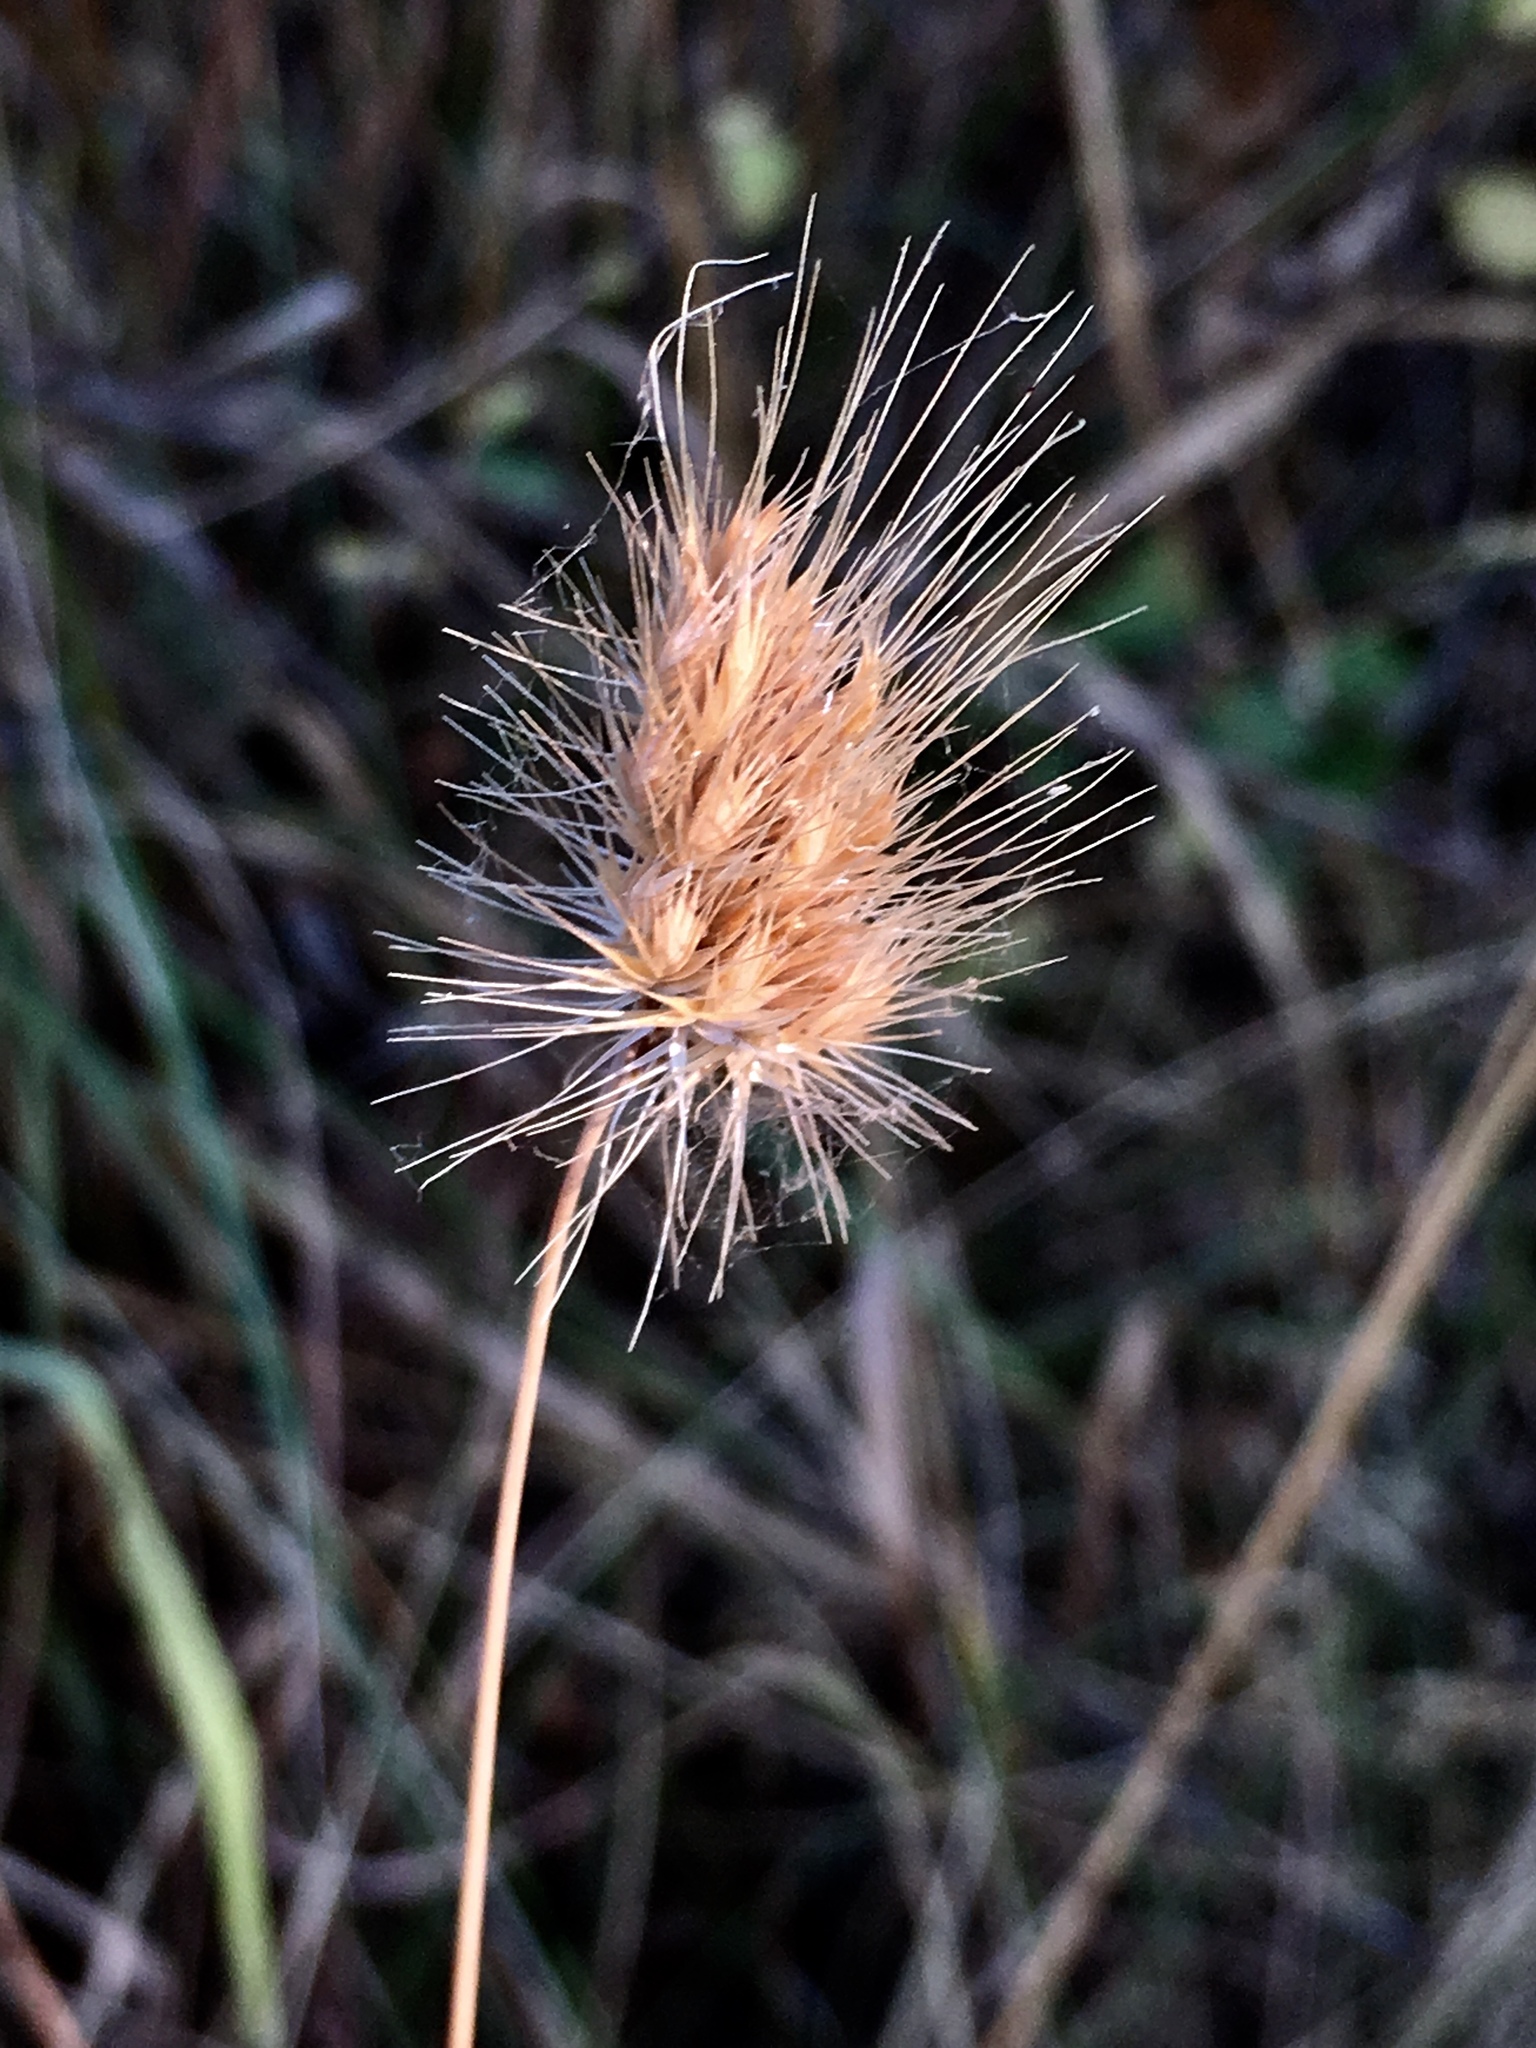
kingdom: Plantae
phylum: Tracheophyta
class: Liliopsida
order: Poales
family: Poaceae
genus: Cynosurus
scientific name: Cynosurus echinatus
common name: Rough dog's-tail
